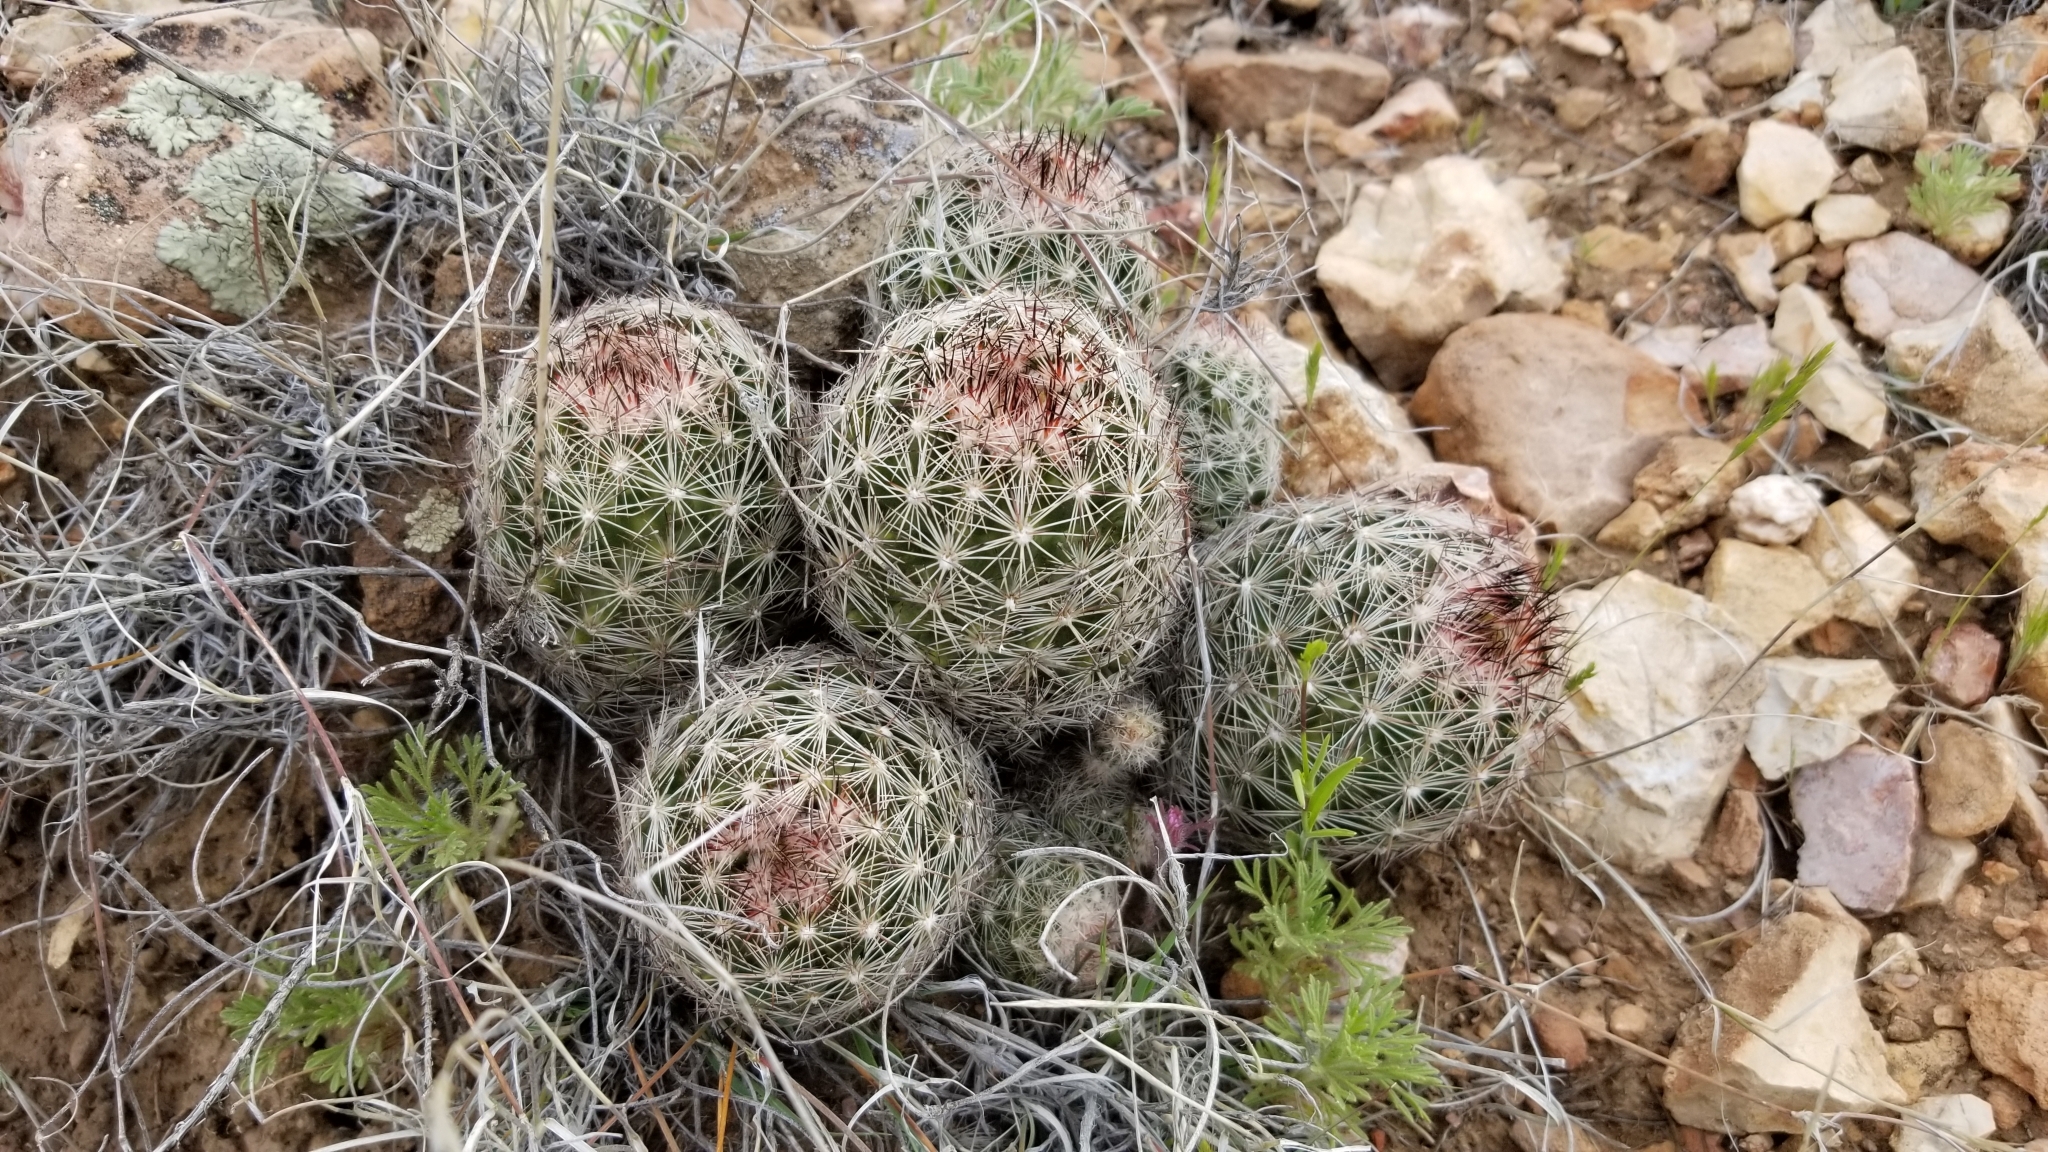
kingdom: Plantae
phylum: Tracheophyta
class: Magnoliopsida
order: Caryophyllales
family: Cactaceae
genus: Pelecyphora
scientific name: Pelecyphora vivipara
